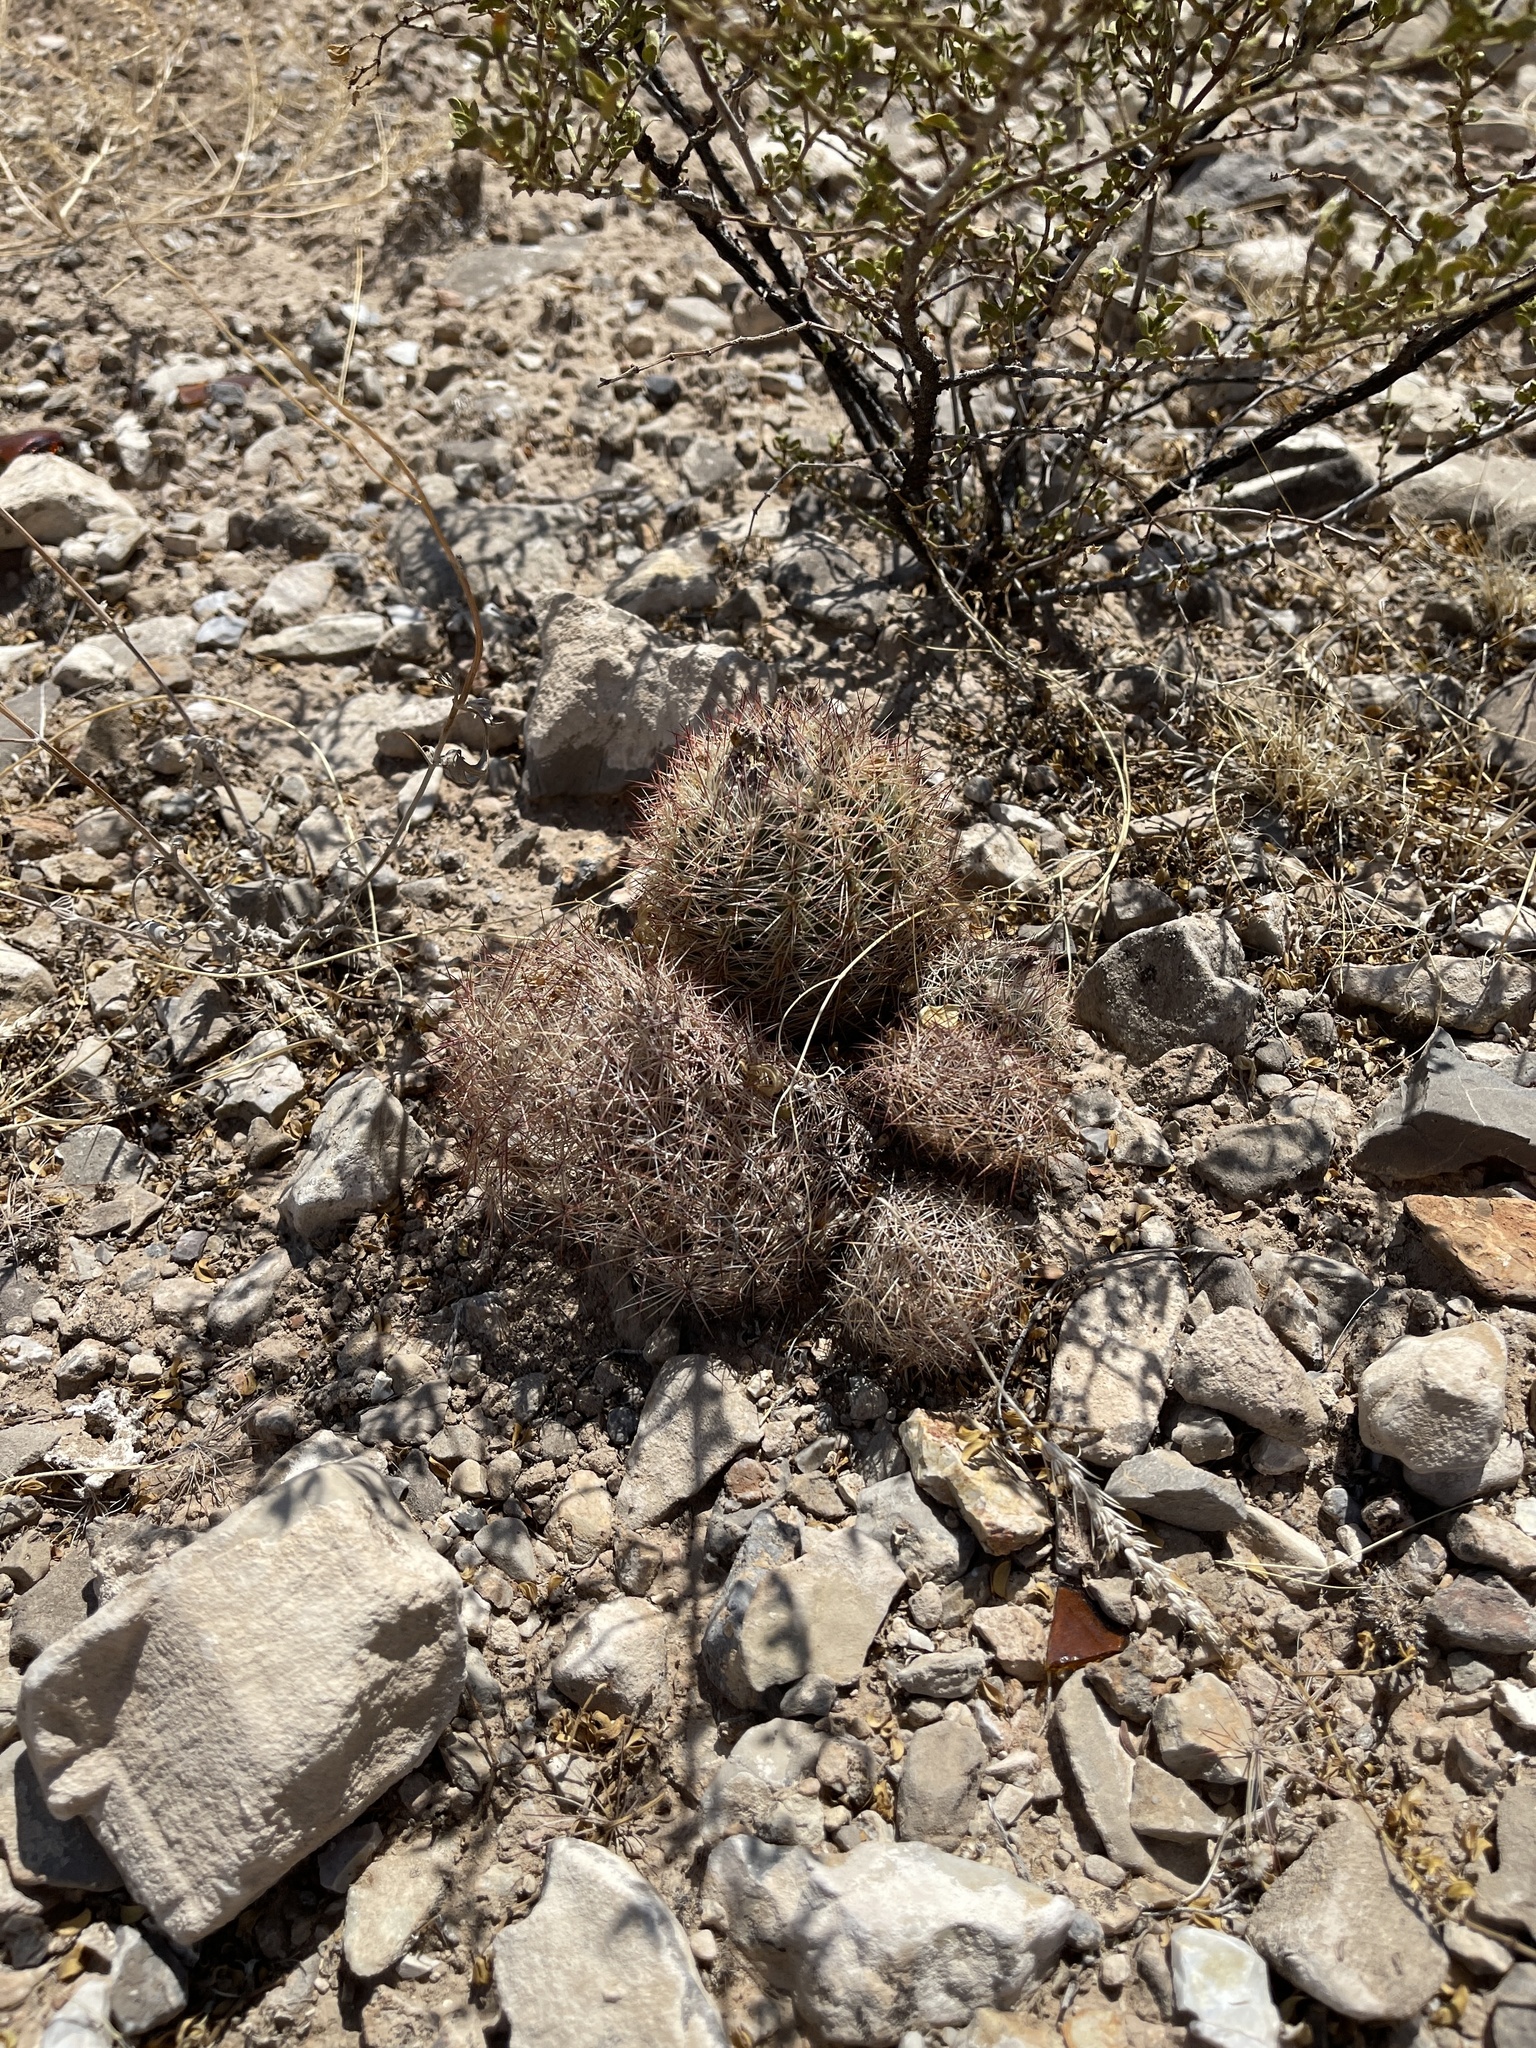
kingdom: Plantae
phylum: Tracheophyta
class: Magnoliopsida
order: Caryophyllales
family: Cactaceae
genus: Pelecyphora
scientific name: Pelecyphora vivipara
